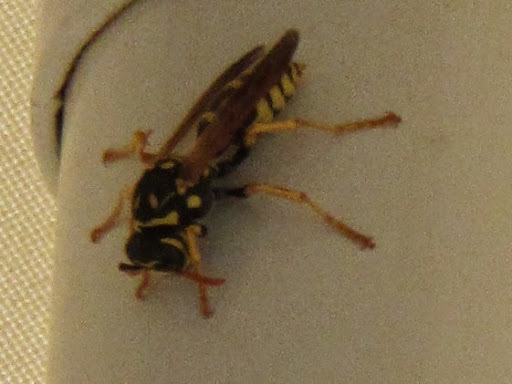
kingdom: Animalia
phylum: Arthropoda
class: Insecta
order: Hymenoptera
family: Eumenidae
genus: Polistes
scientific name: Polistes dominula
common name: Paper wasp
